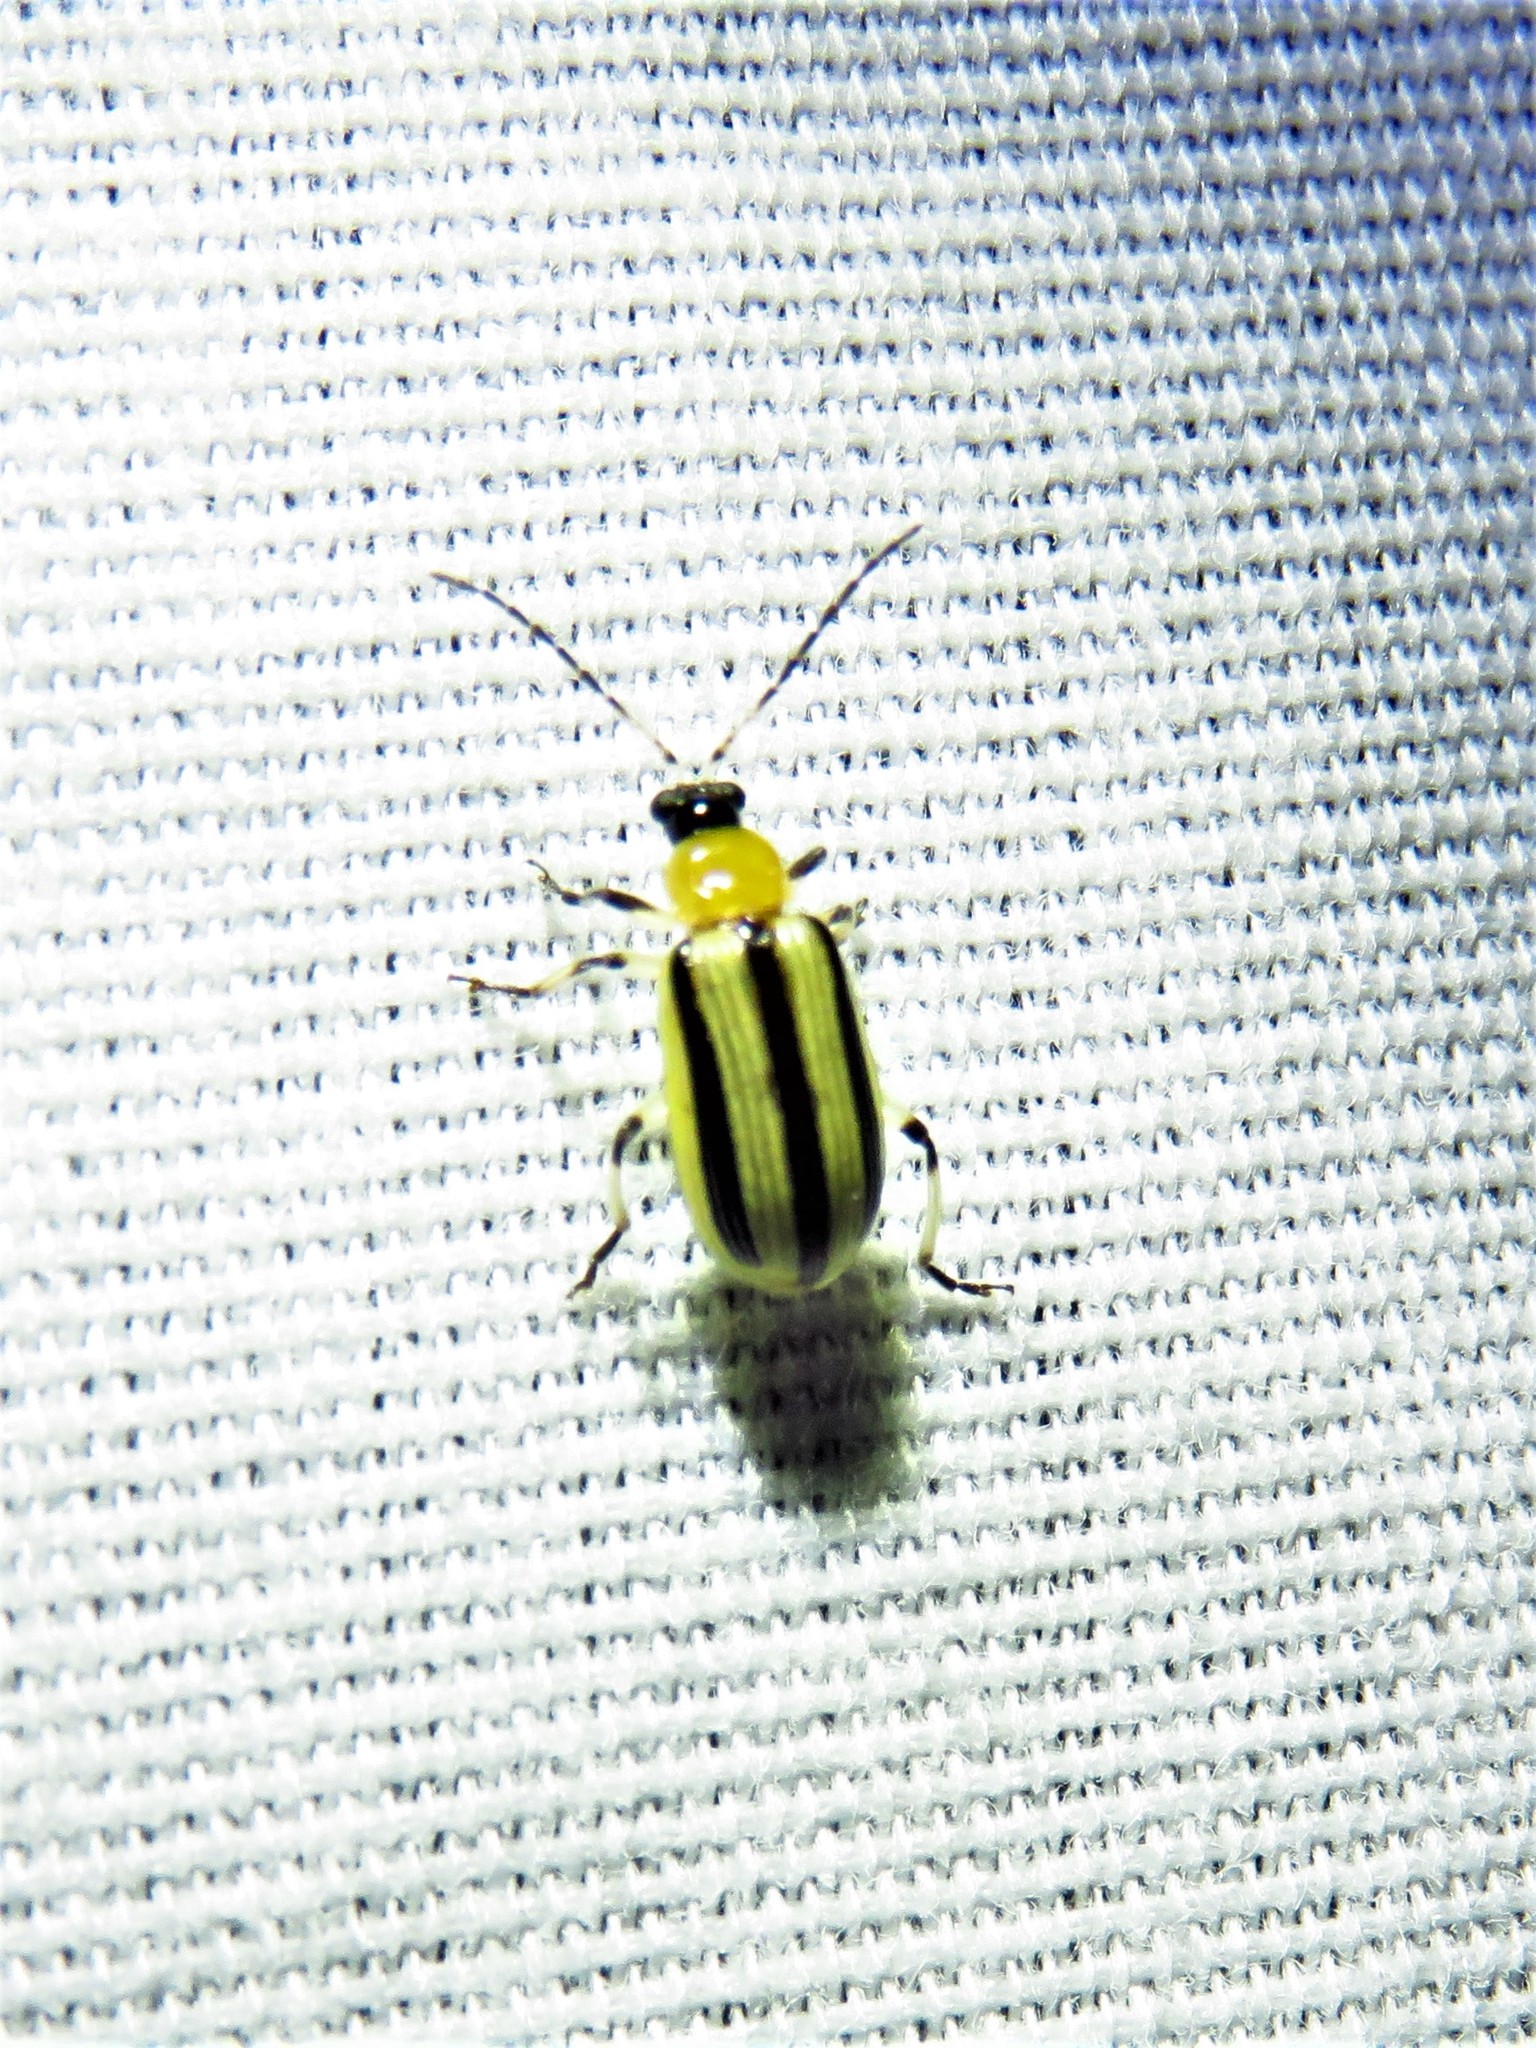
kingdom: Animalia
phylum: Arthropoda
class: Insecta
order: Coleoptera
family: Chrysomelidae
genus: Acalymma
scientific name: Acalymma vittatum
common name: Striped cucumber beetle
